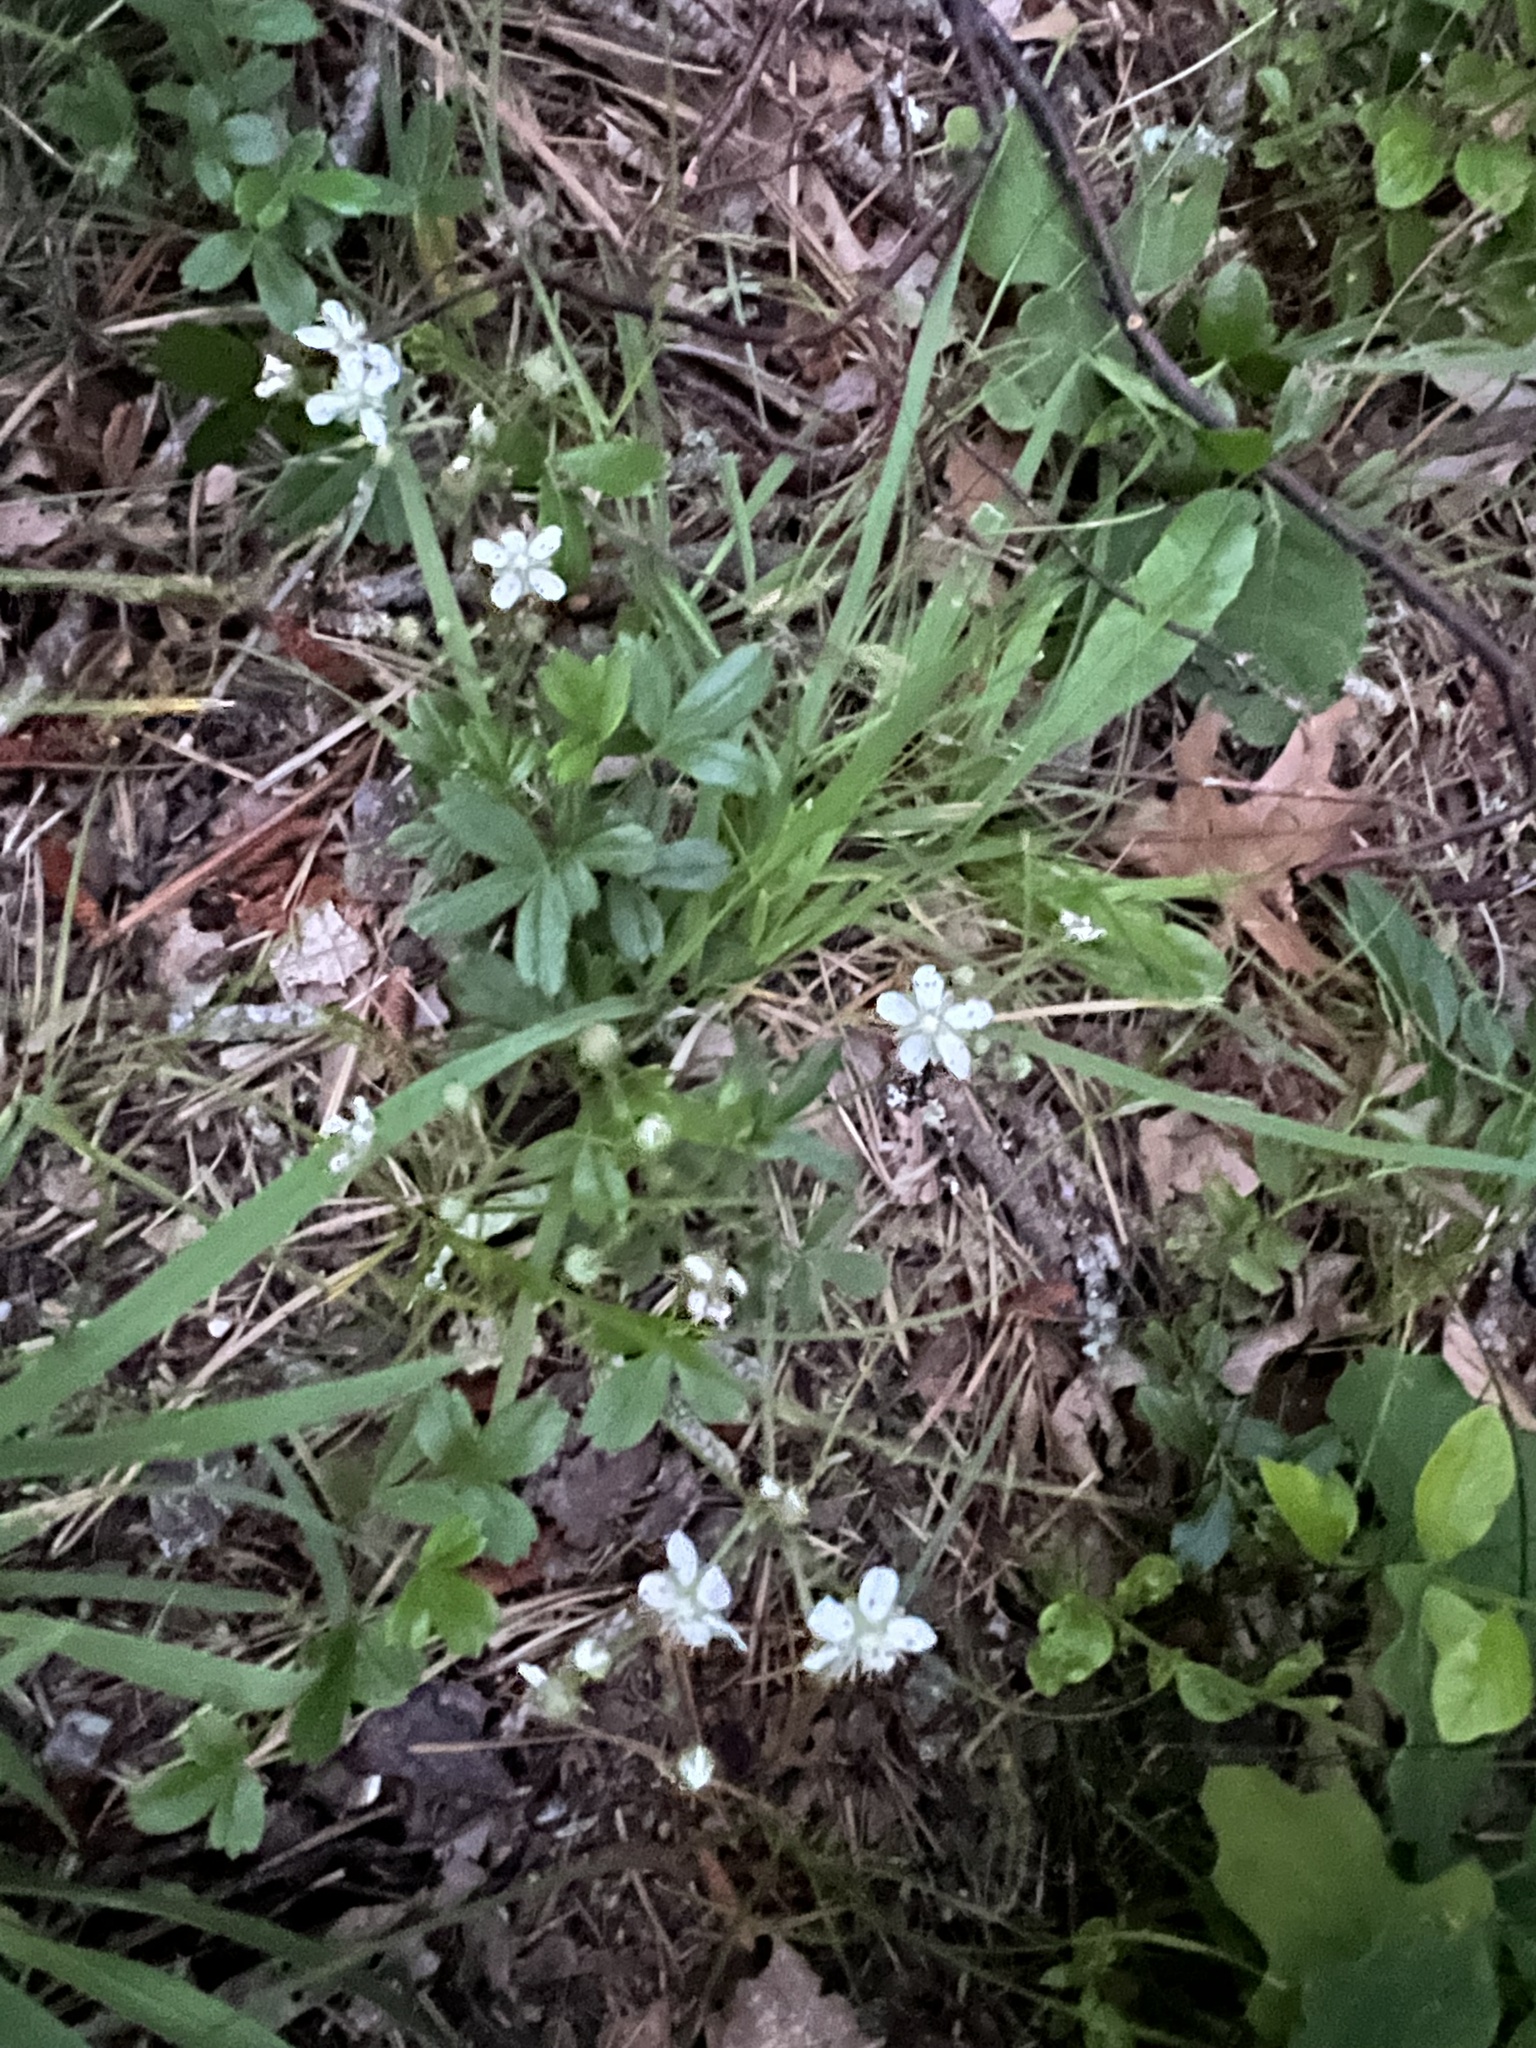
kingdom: Plantae
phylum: Tracheophyta
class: Magnoliopsida
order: Rosales
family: Rosaceae
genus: Sibbaldia
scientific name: Sibbaldia tridentata
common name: Three-toothed cinquefoil
